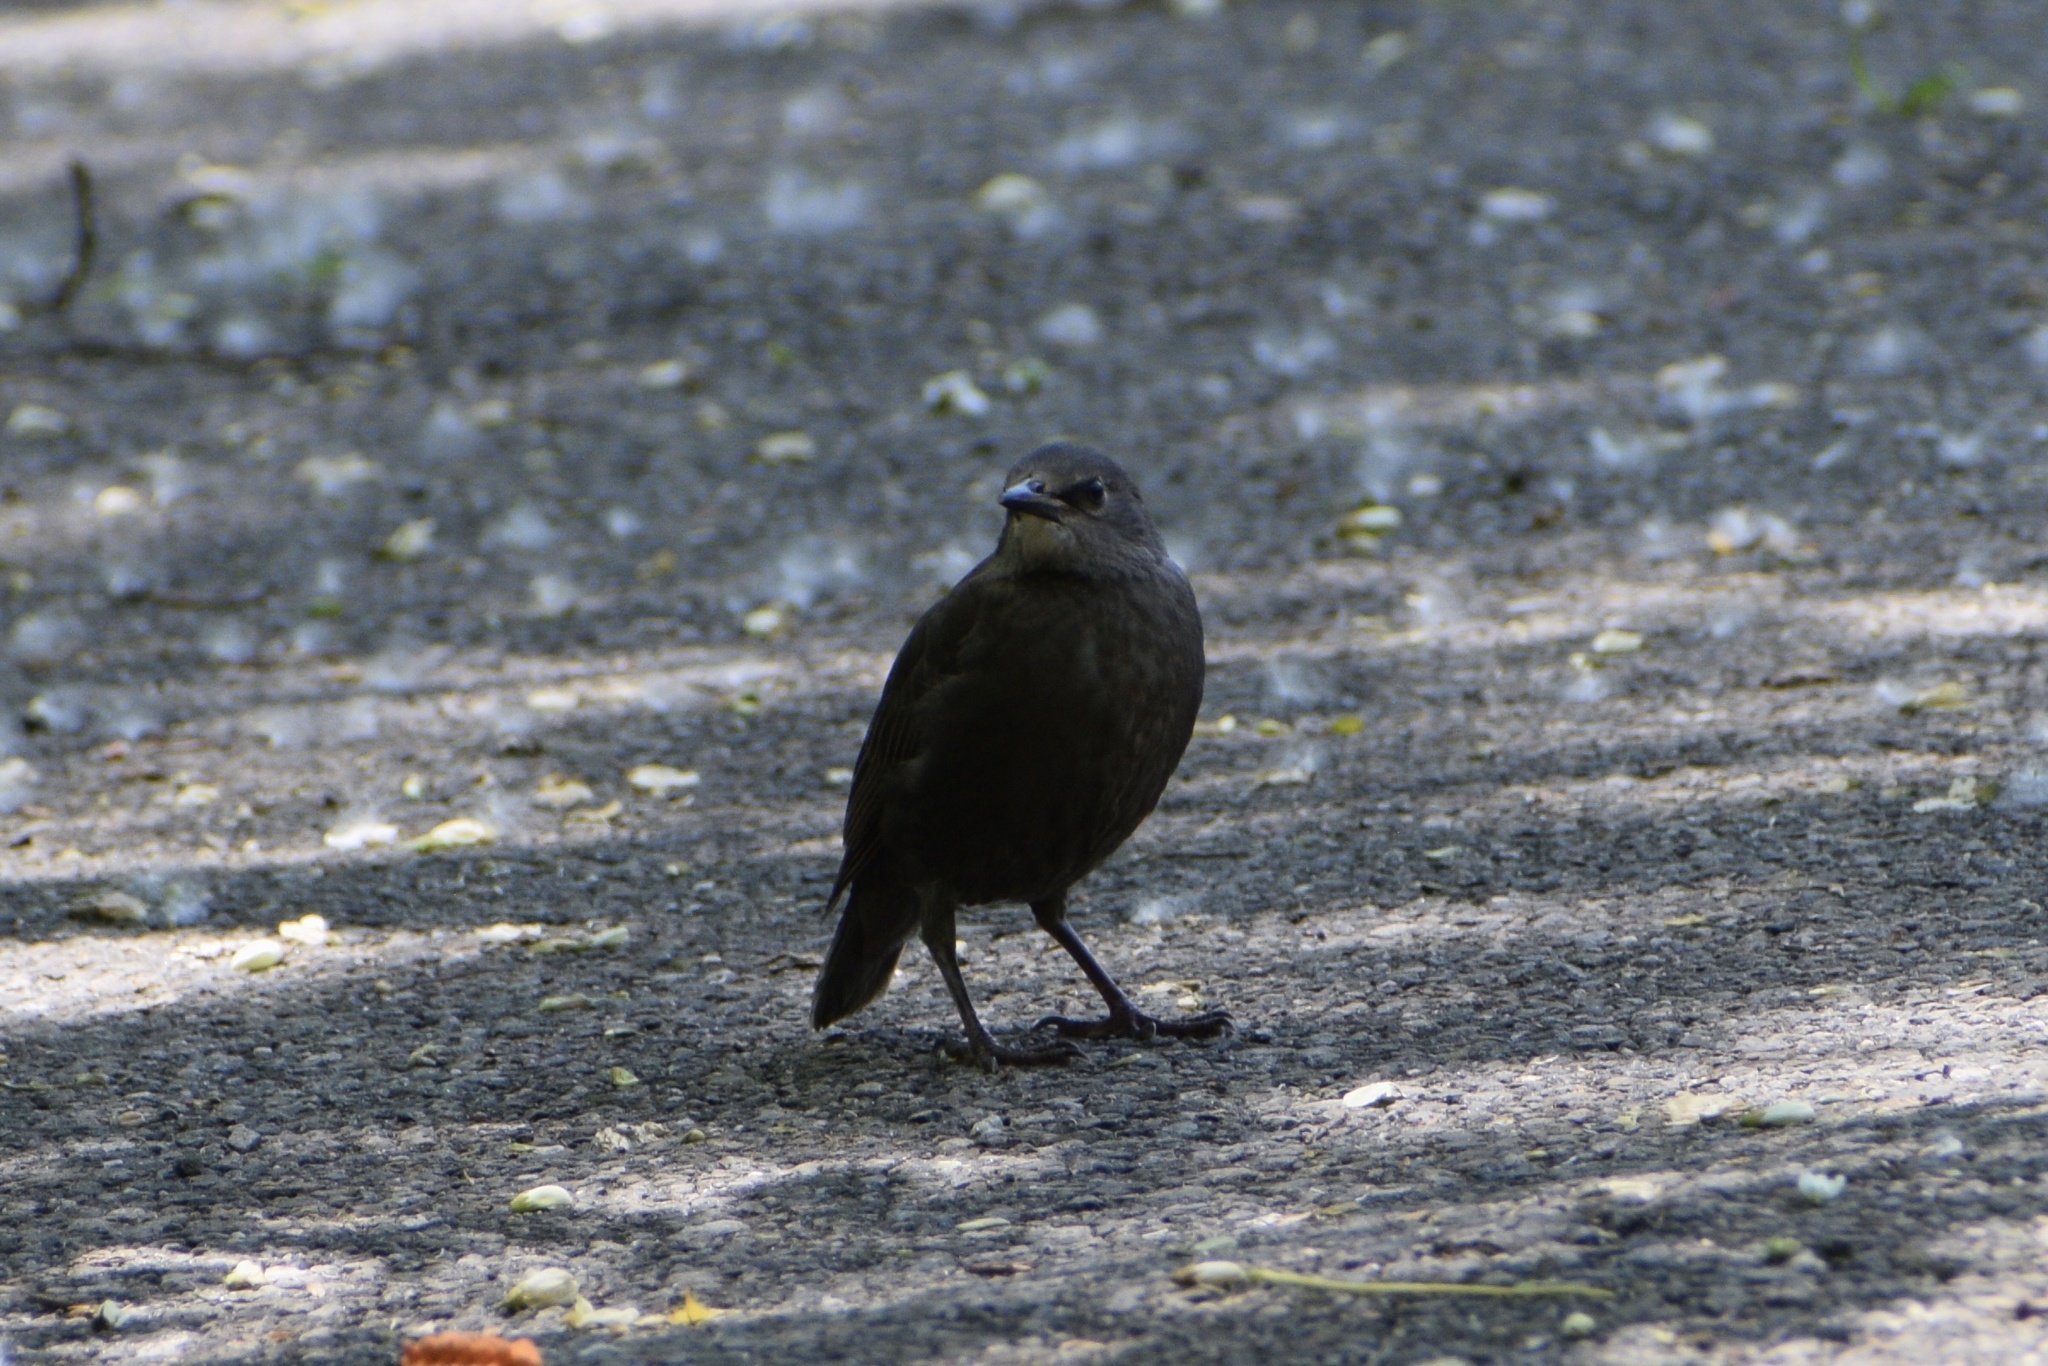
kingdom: Animalia
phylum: Chordata
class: Aves
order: Passeriformes
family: Sturnidae
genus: Sturnus
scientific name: Sturnus vulgaris
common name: Common starling
